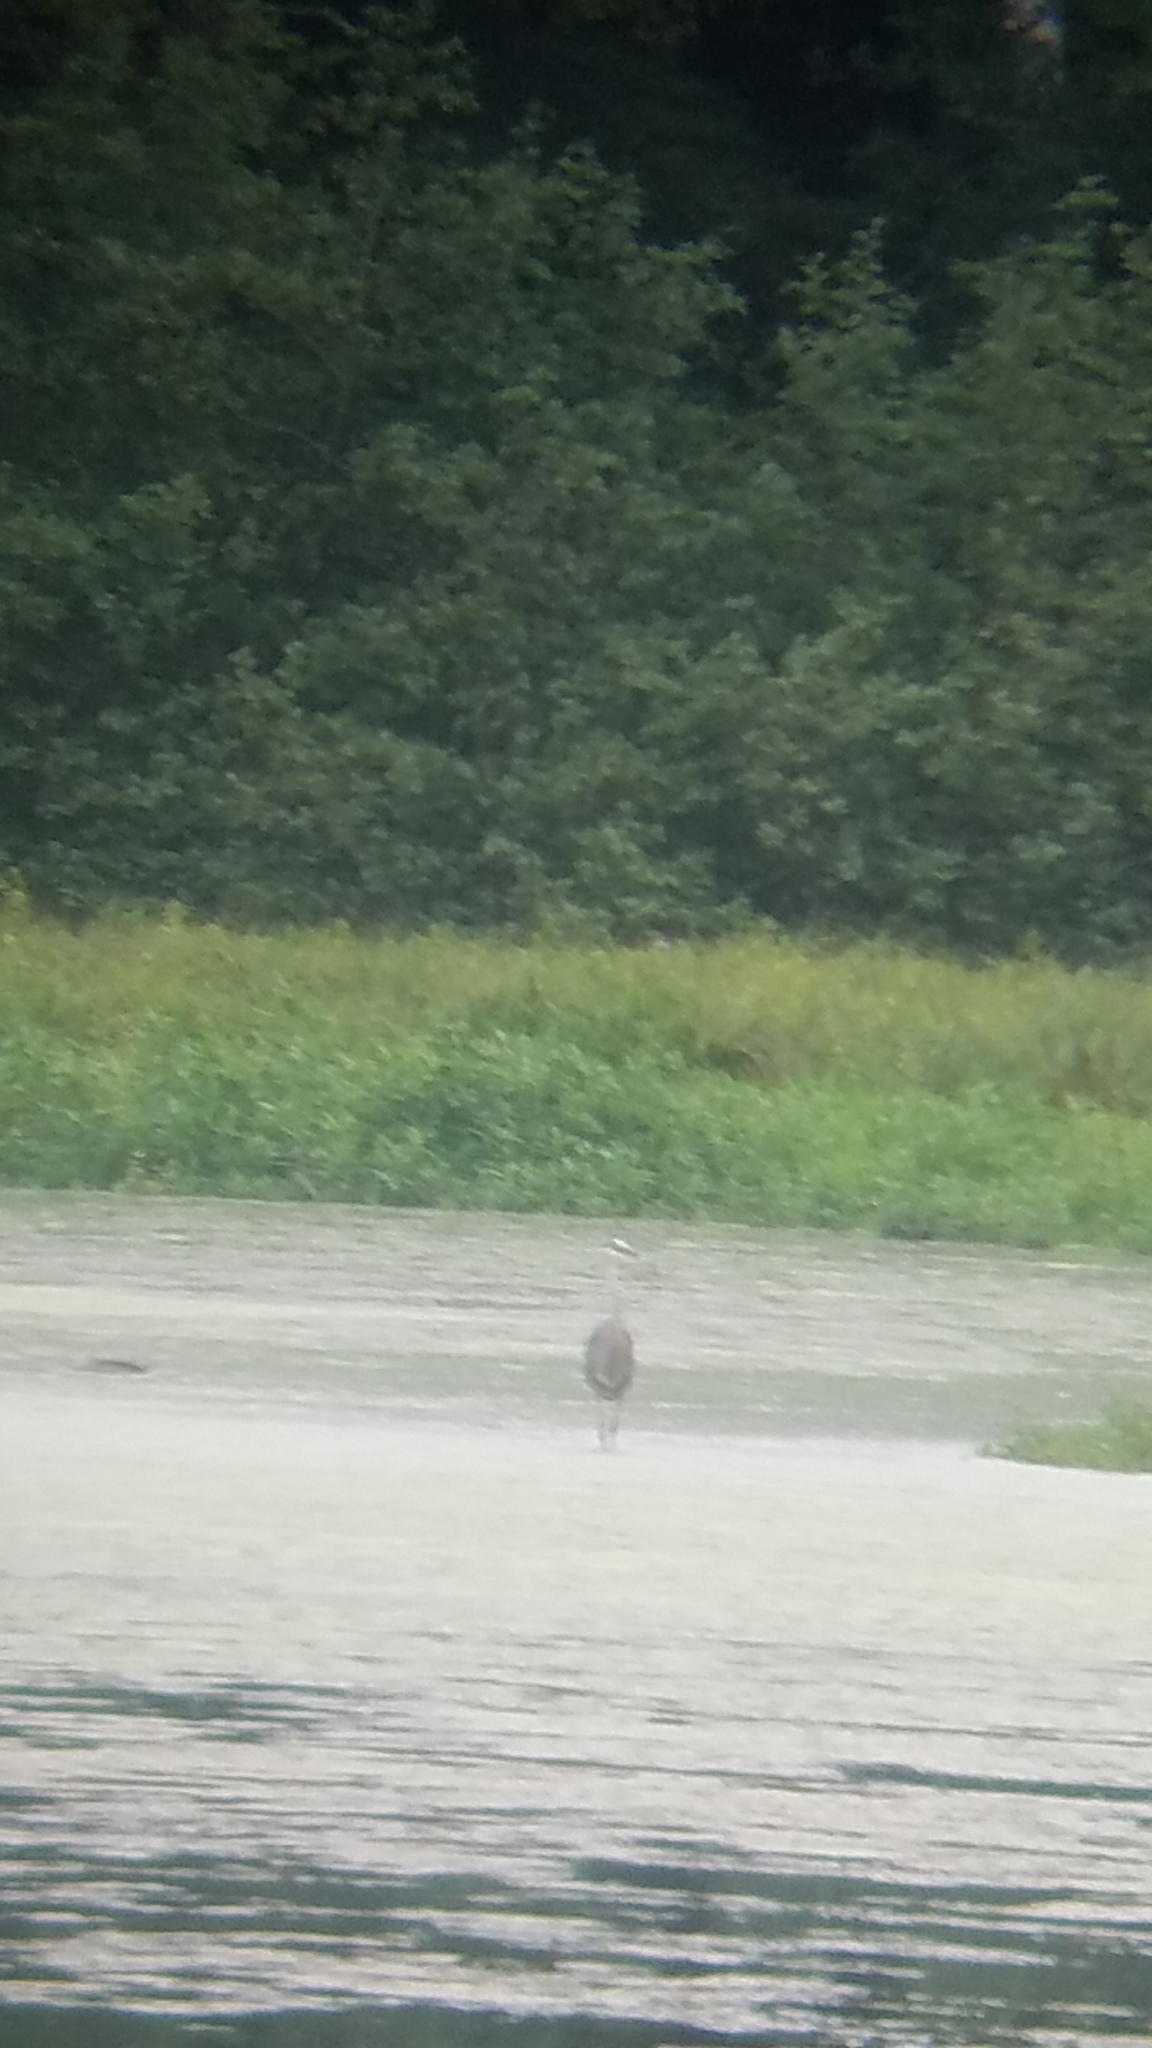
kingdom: Animalia
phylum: Chordata
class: Aves
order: Pelecaniformes
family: Ardeidae
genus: Ardea
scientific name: Ardea herodias
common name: Great blue heron
